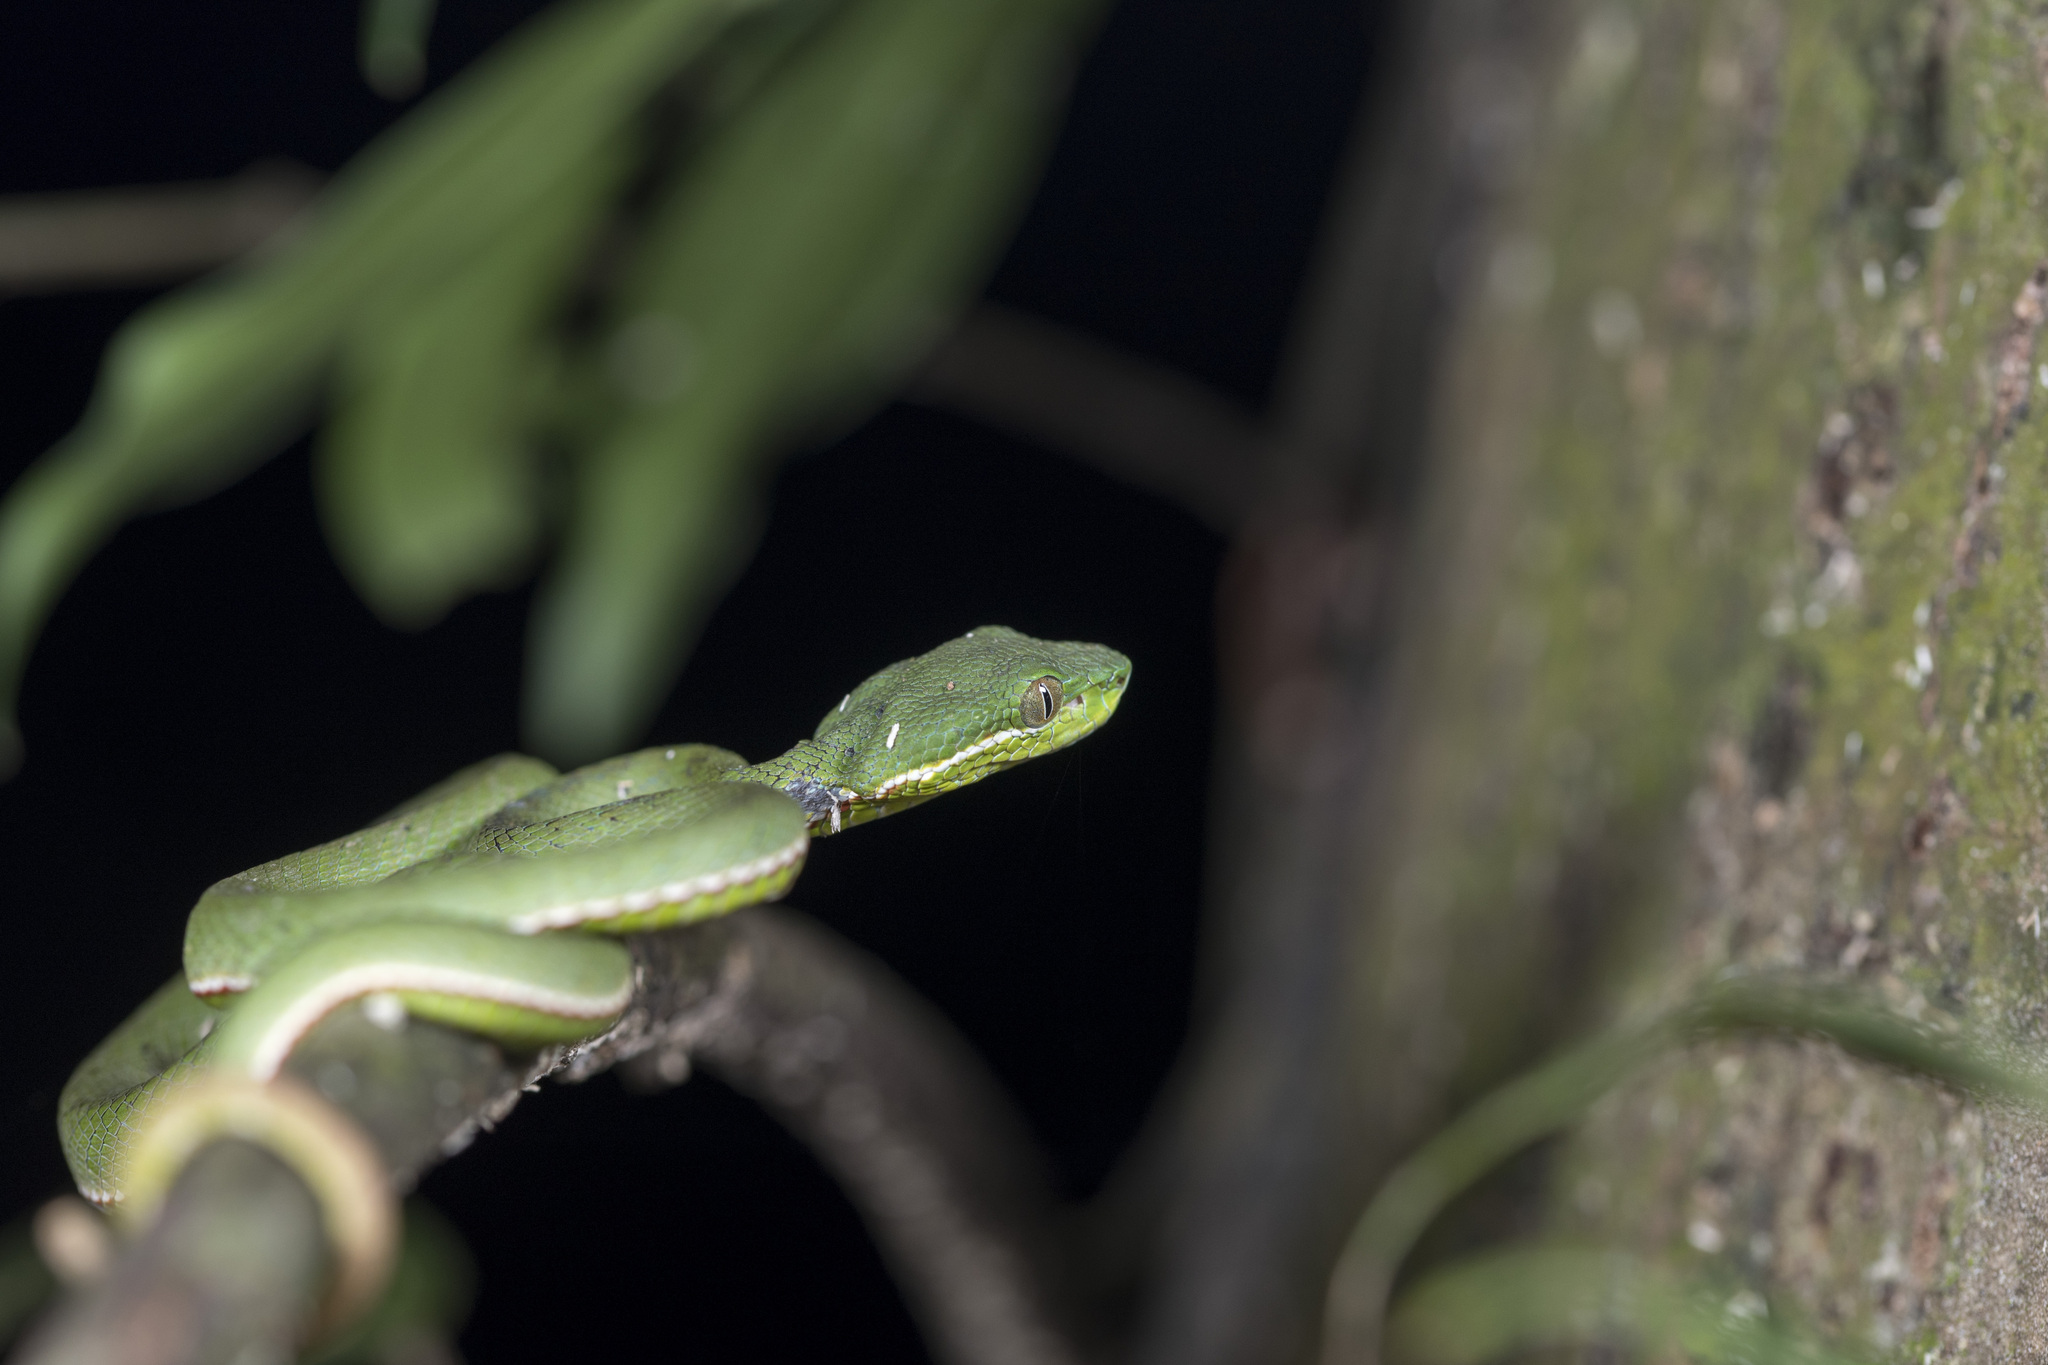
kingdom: Animalia
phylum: Chordata
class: Squamata
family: Viperidae
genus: Trimeresurus
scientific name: Trimeresurus stejnegeri
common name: Chen’s bamboo pit viper
